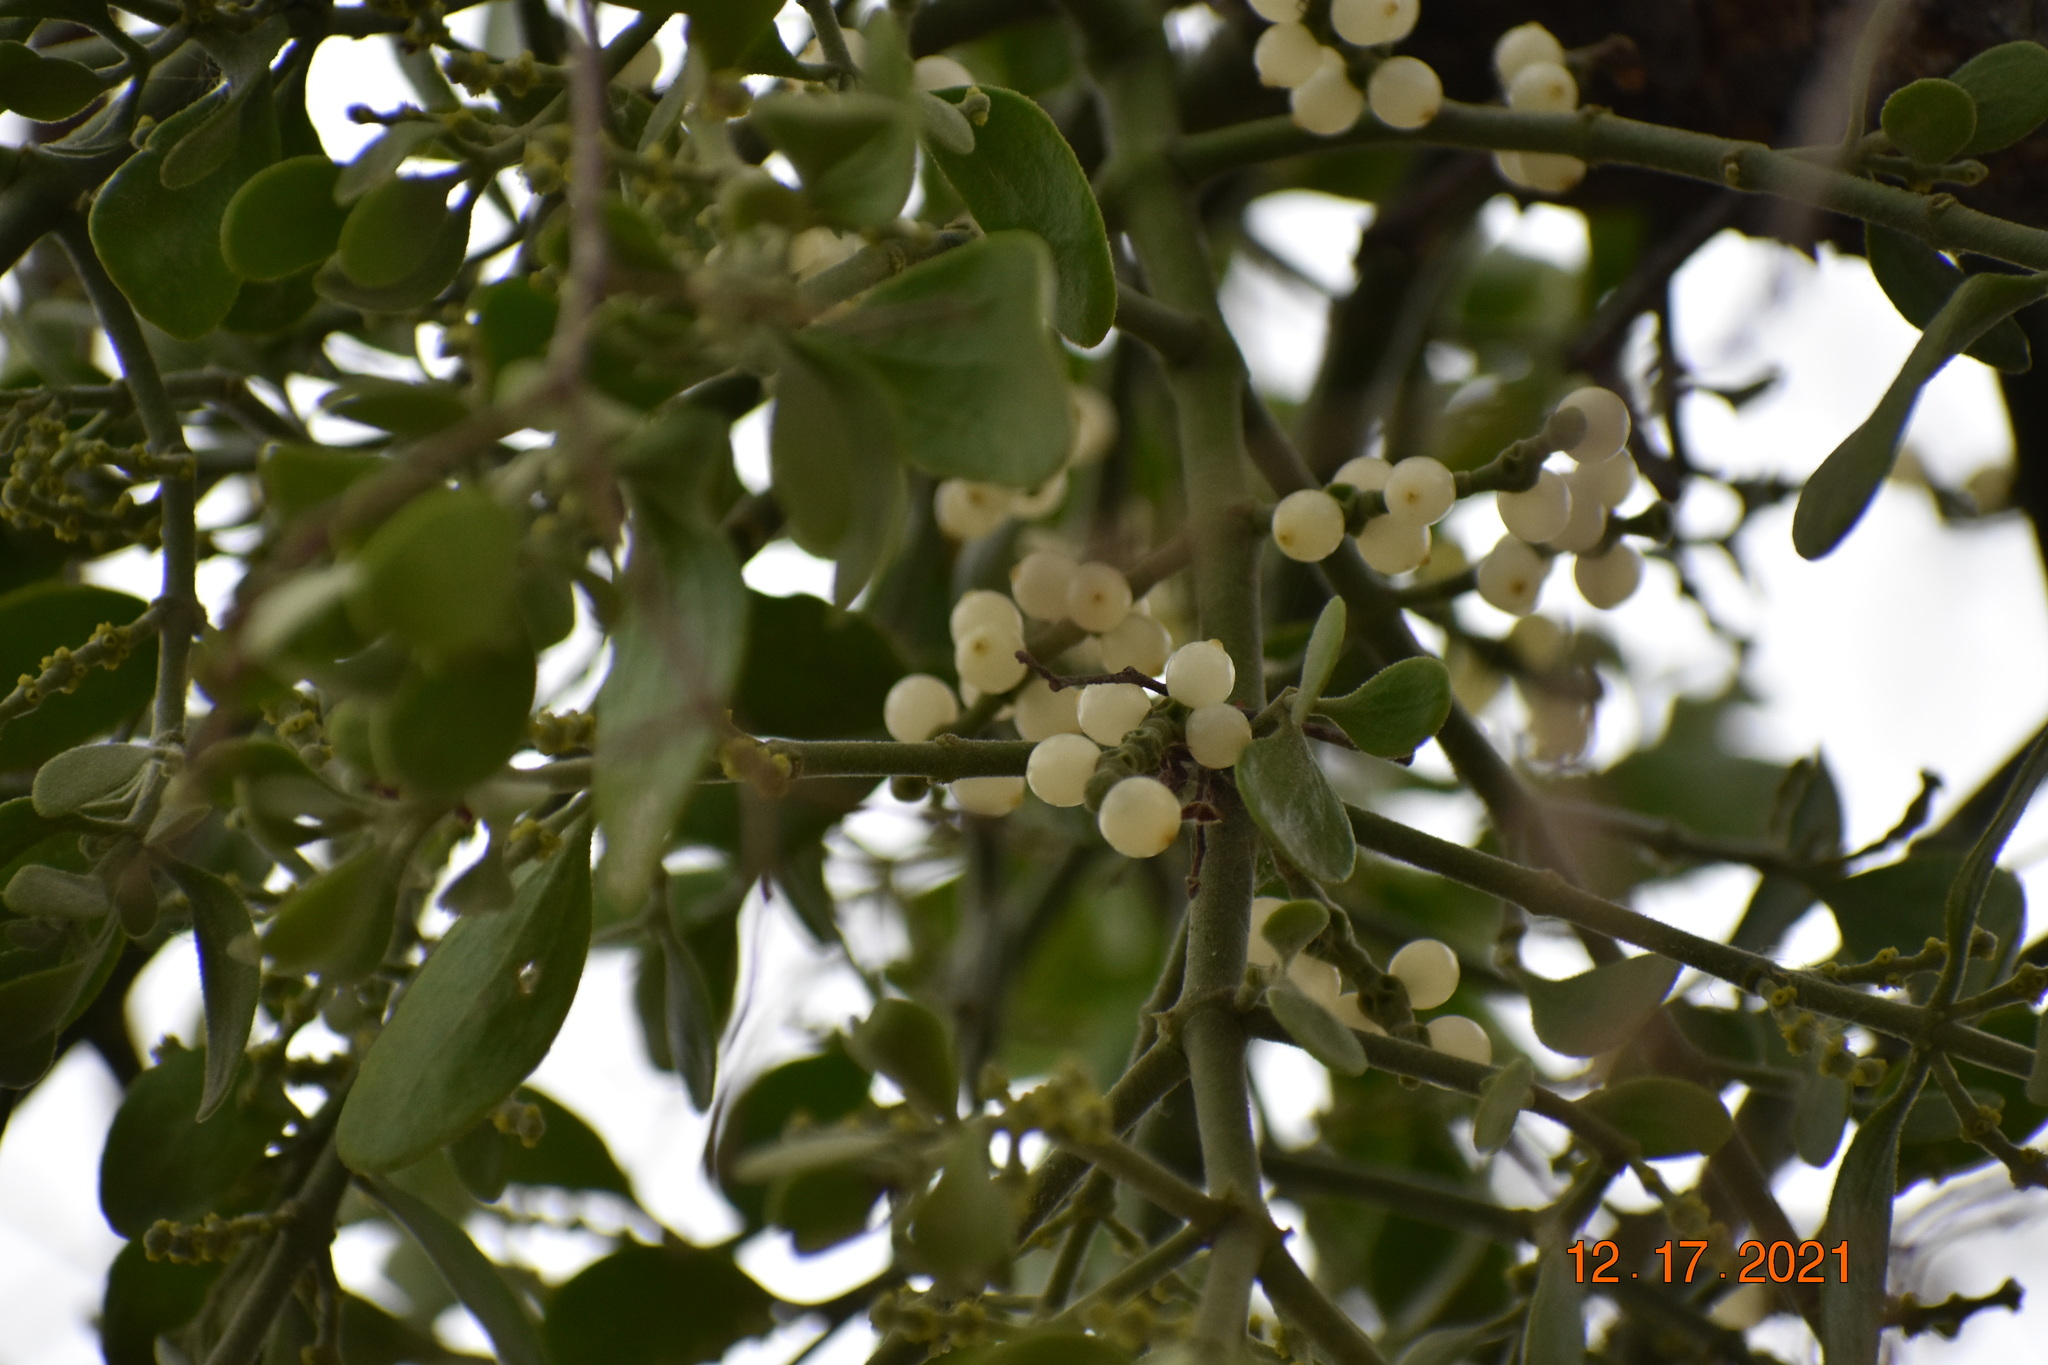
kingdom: Plantae
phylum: Tracheophyta
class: Magnoliopsida
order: Santalales
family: Viscaceae
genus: Phoradendron
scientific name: Phoradendron leucarpum
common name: Pacific mistletoe
